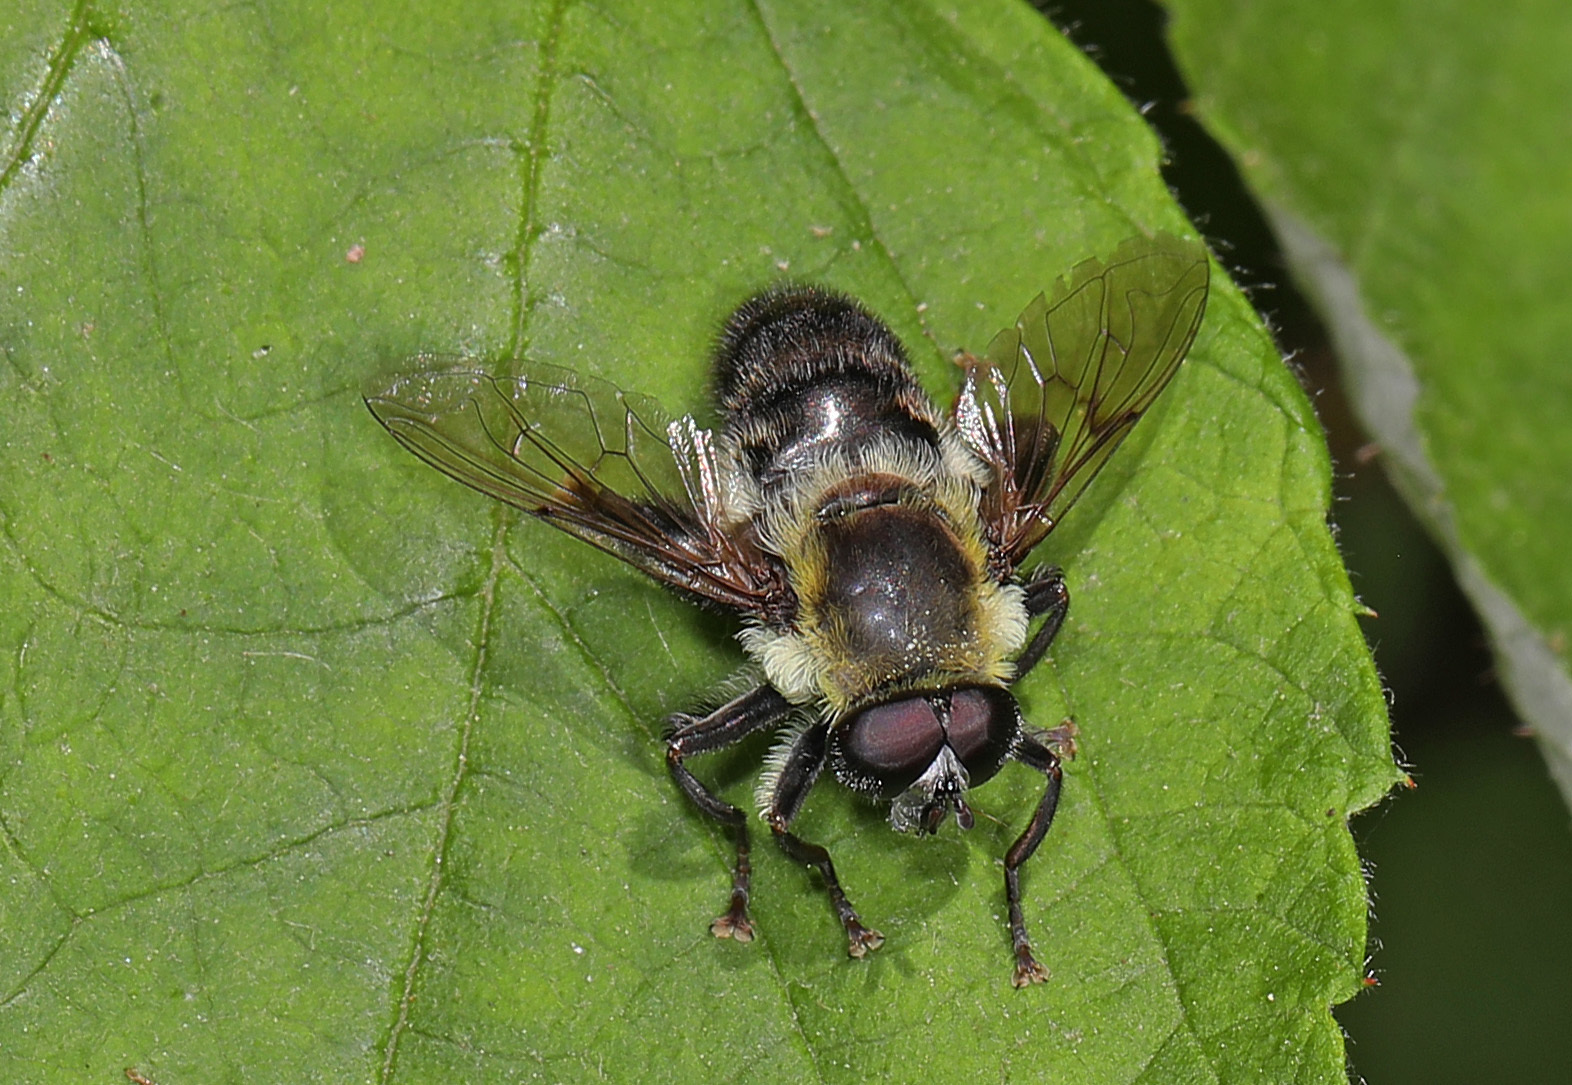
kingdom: Animalia
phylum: Arthropoda
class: Insecta
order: Diptera
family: Syrphidae
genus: Imatisma
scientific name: Imatisma posticata
